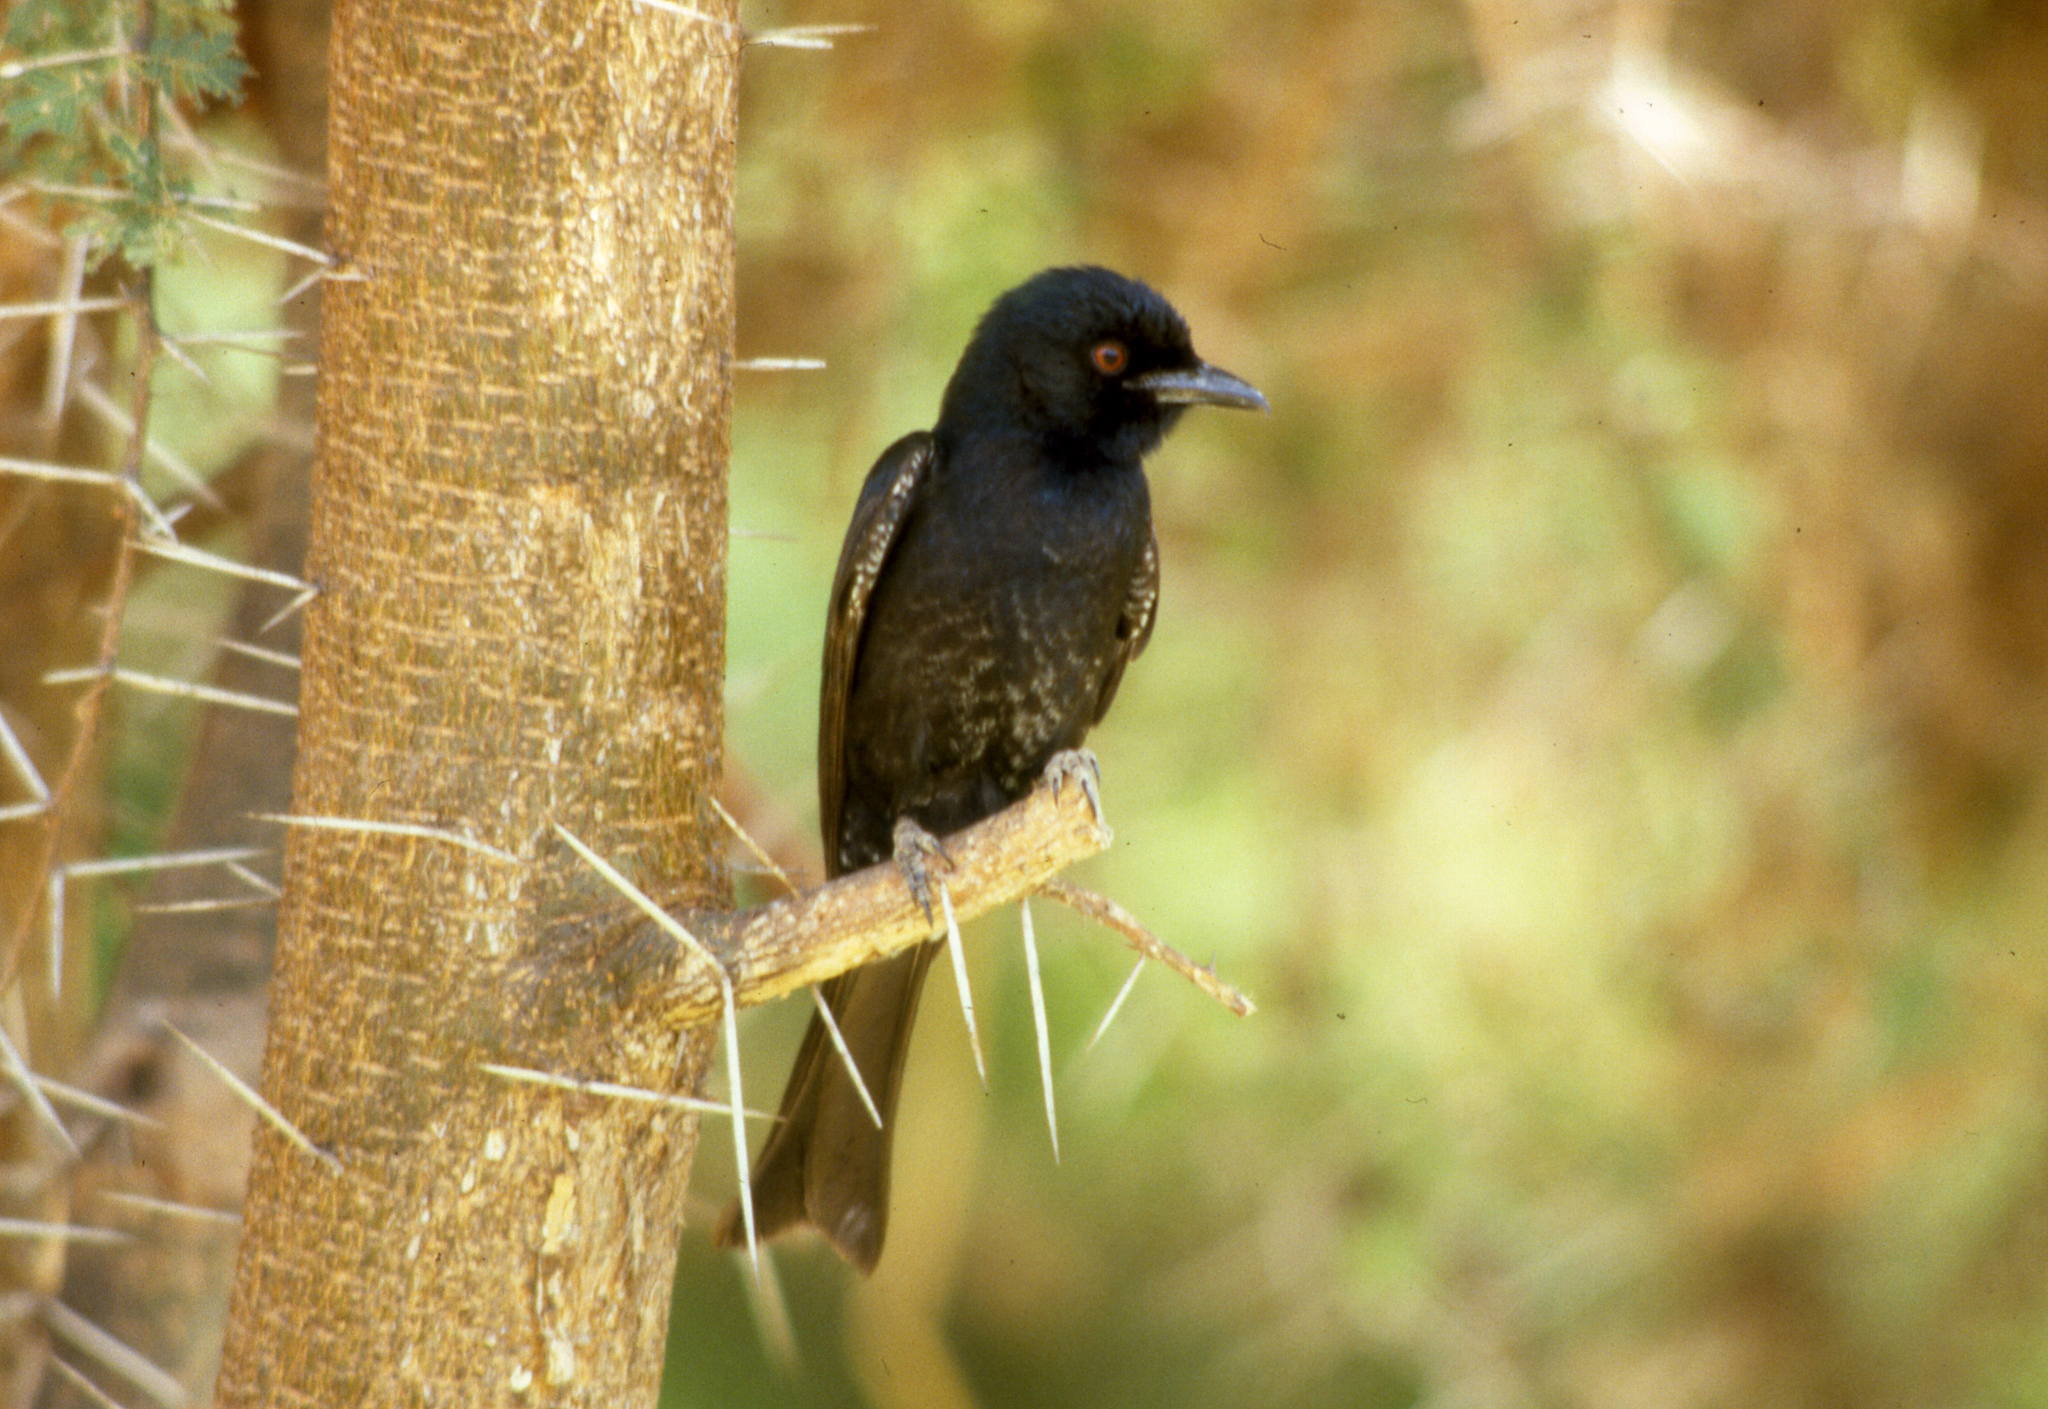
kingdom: Animalia
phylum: Chordata
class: Aves
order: Passeriformes
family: Dicruridae
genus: Dicrurus
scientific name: Dicrurus adsimilis
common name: Fork-tailed drongo
